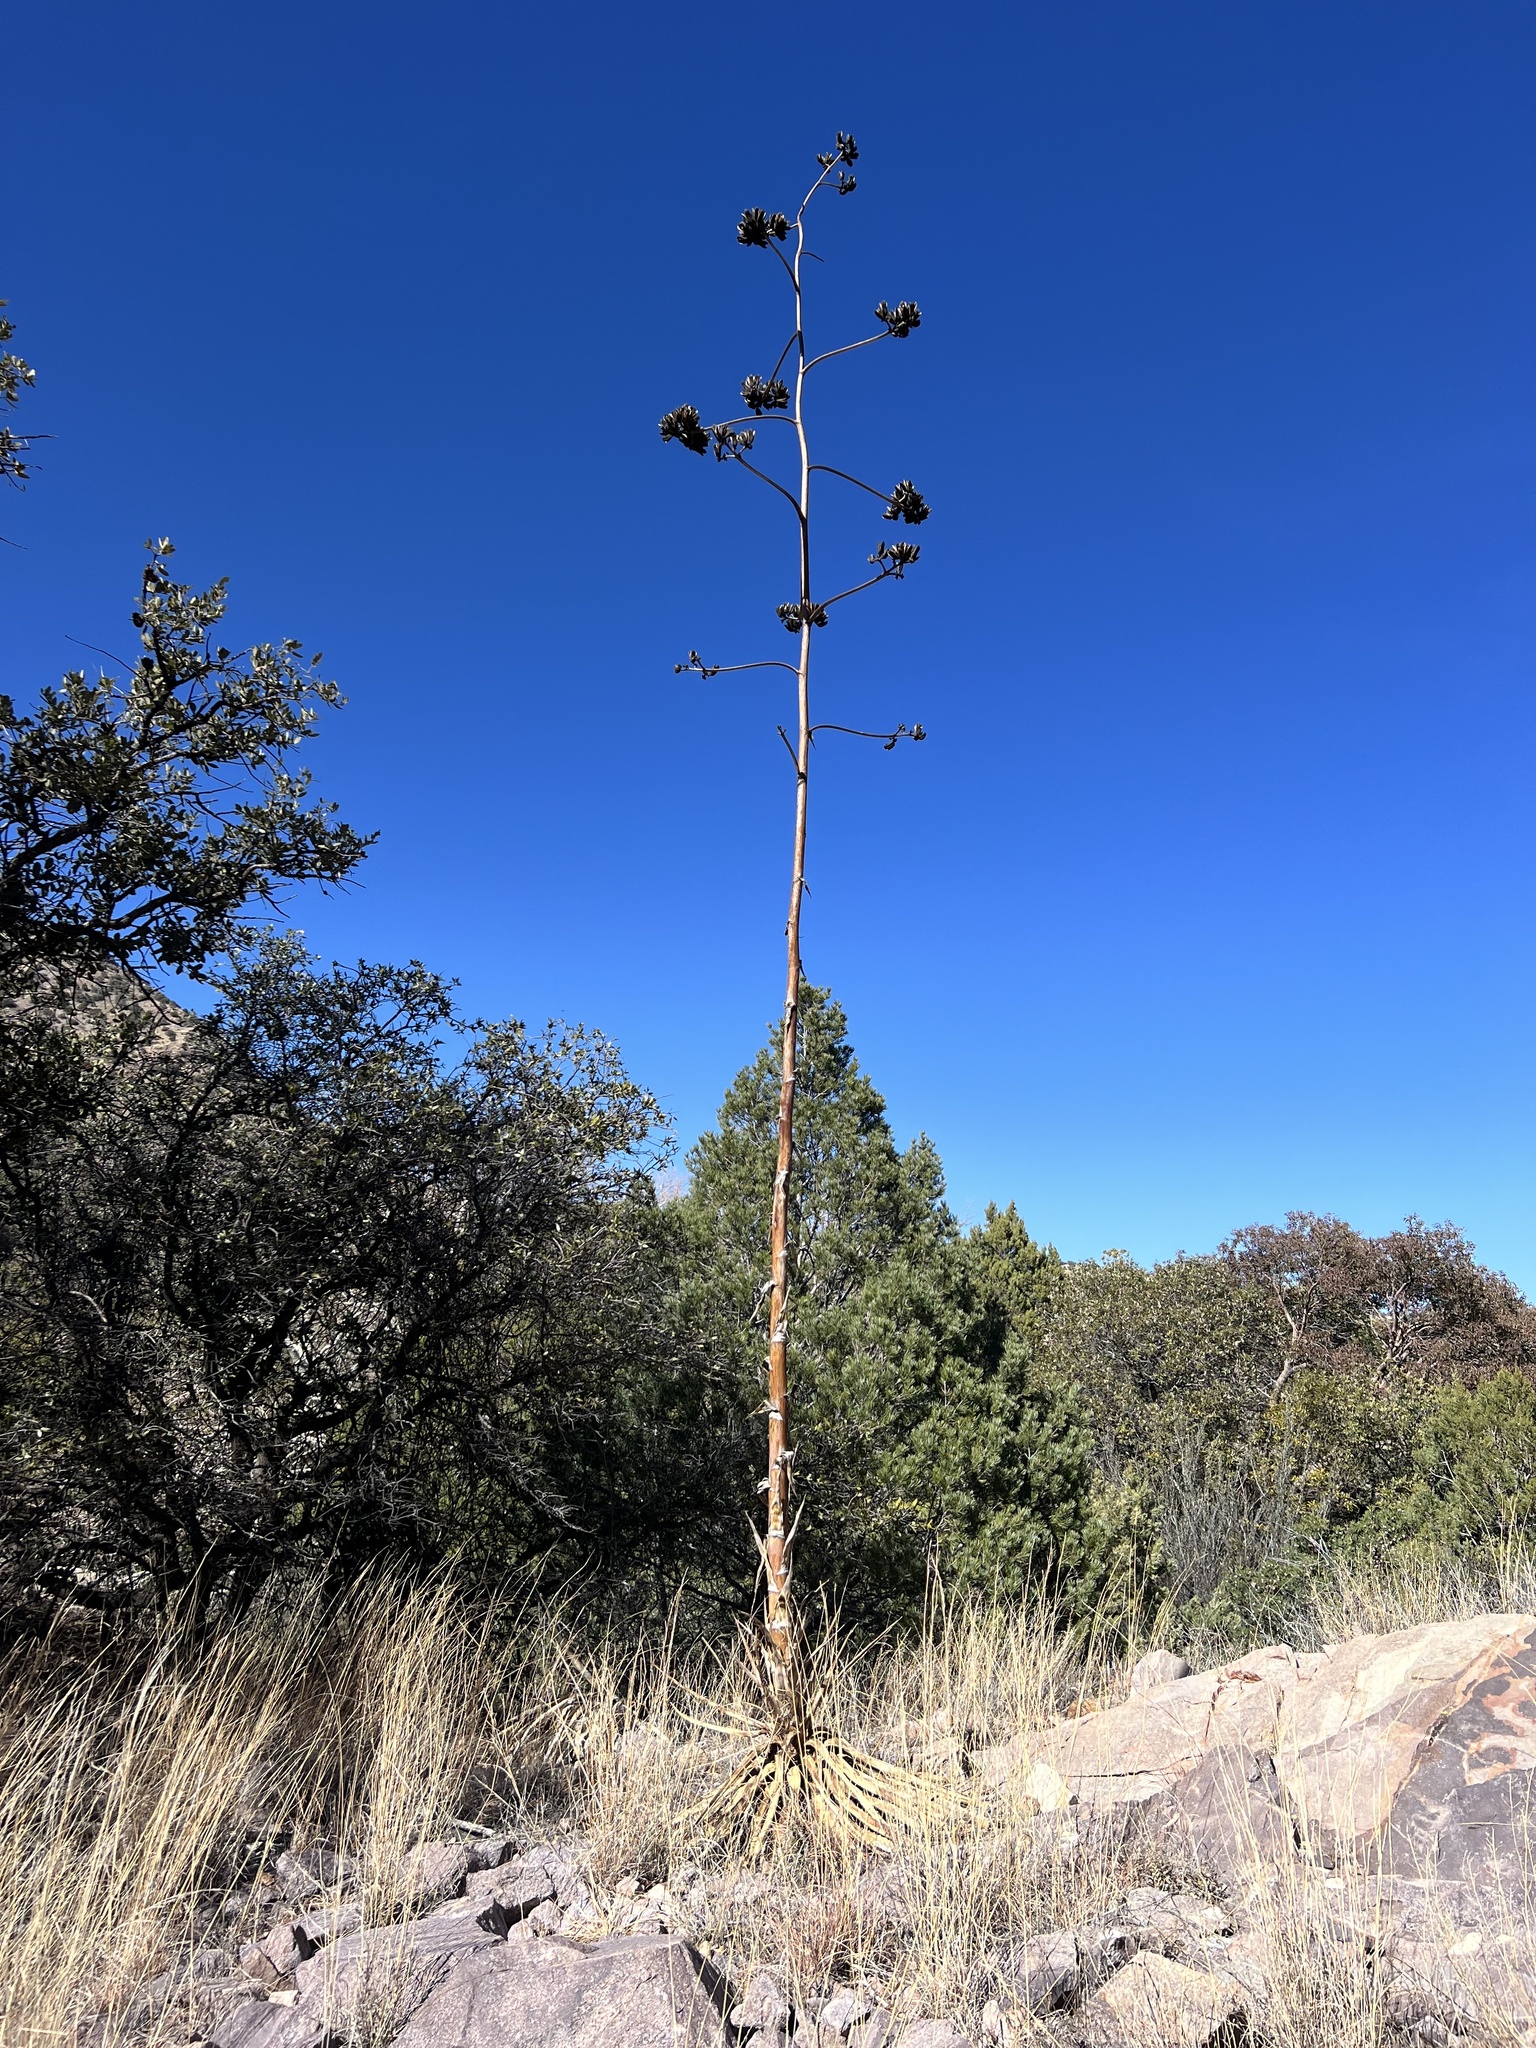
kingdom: Plantae
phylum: Tracheophyta
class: Liliopsida
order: Asparagales
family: Asparagaceae
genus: Agave
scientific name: Agave palmeri
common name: Palmer agave
